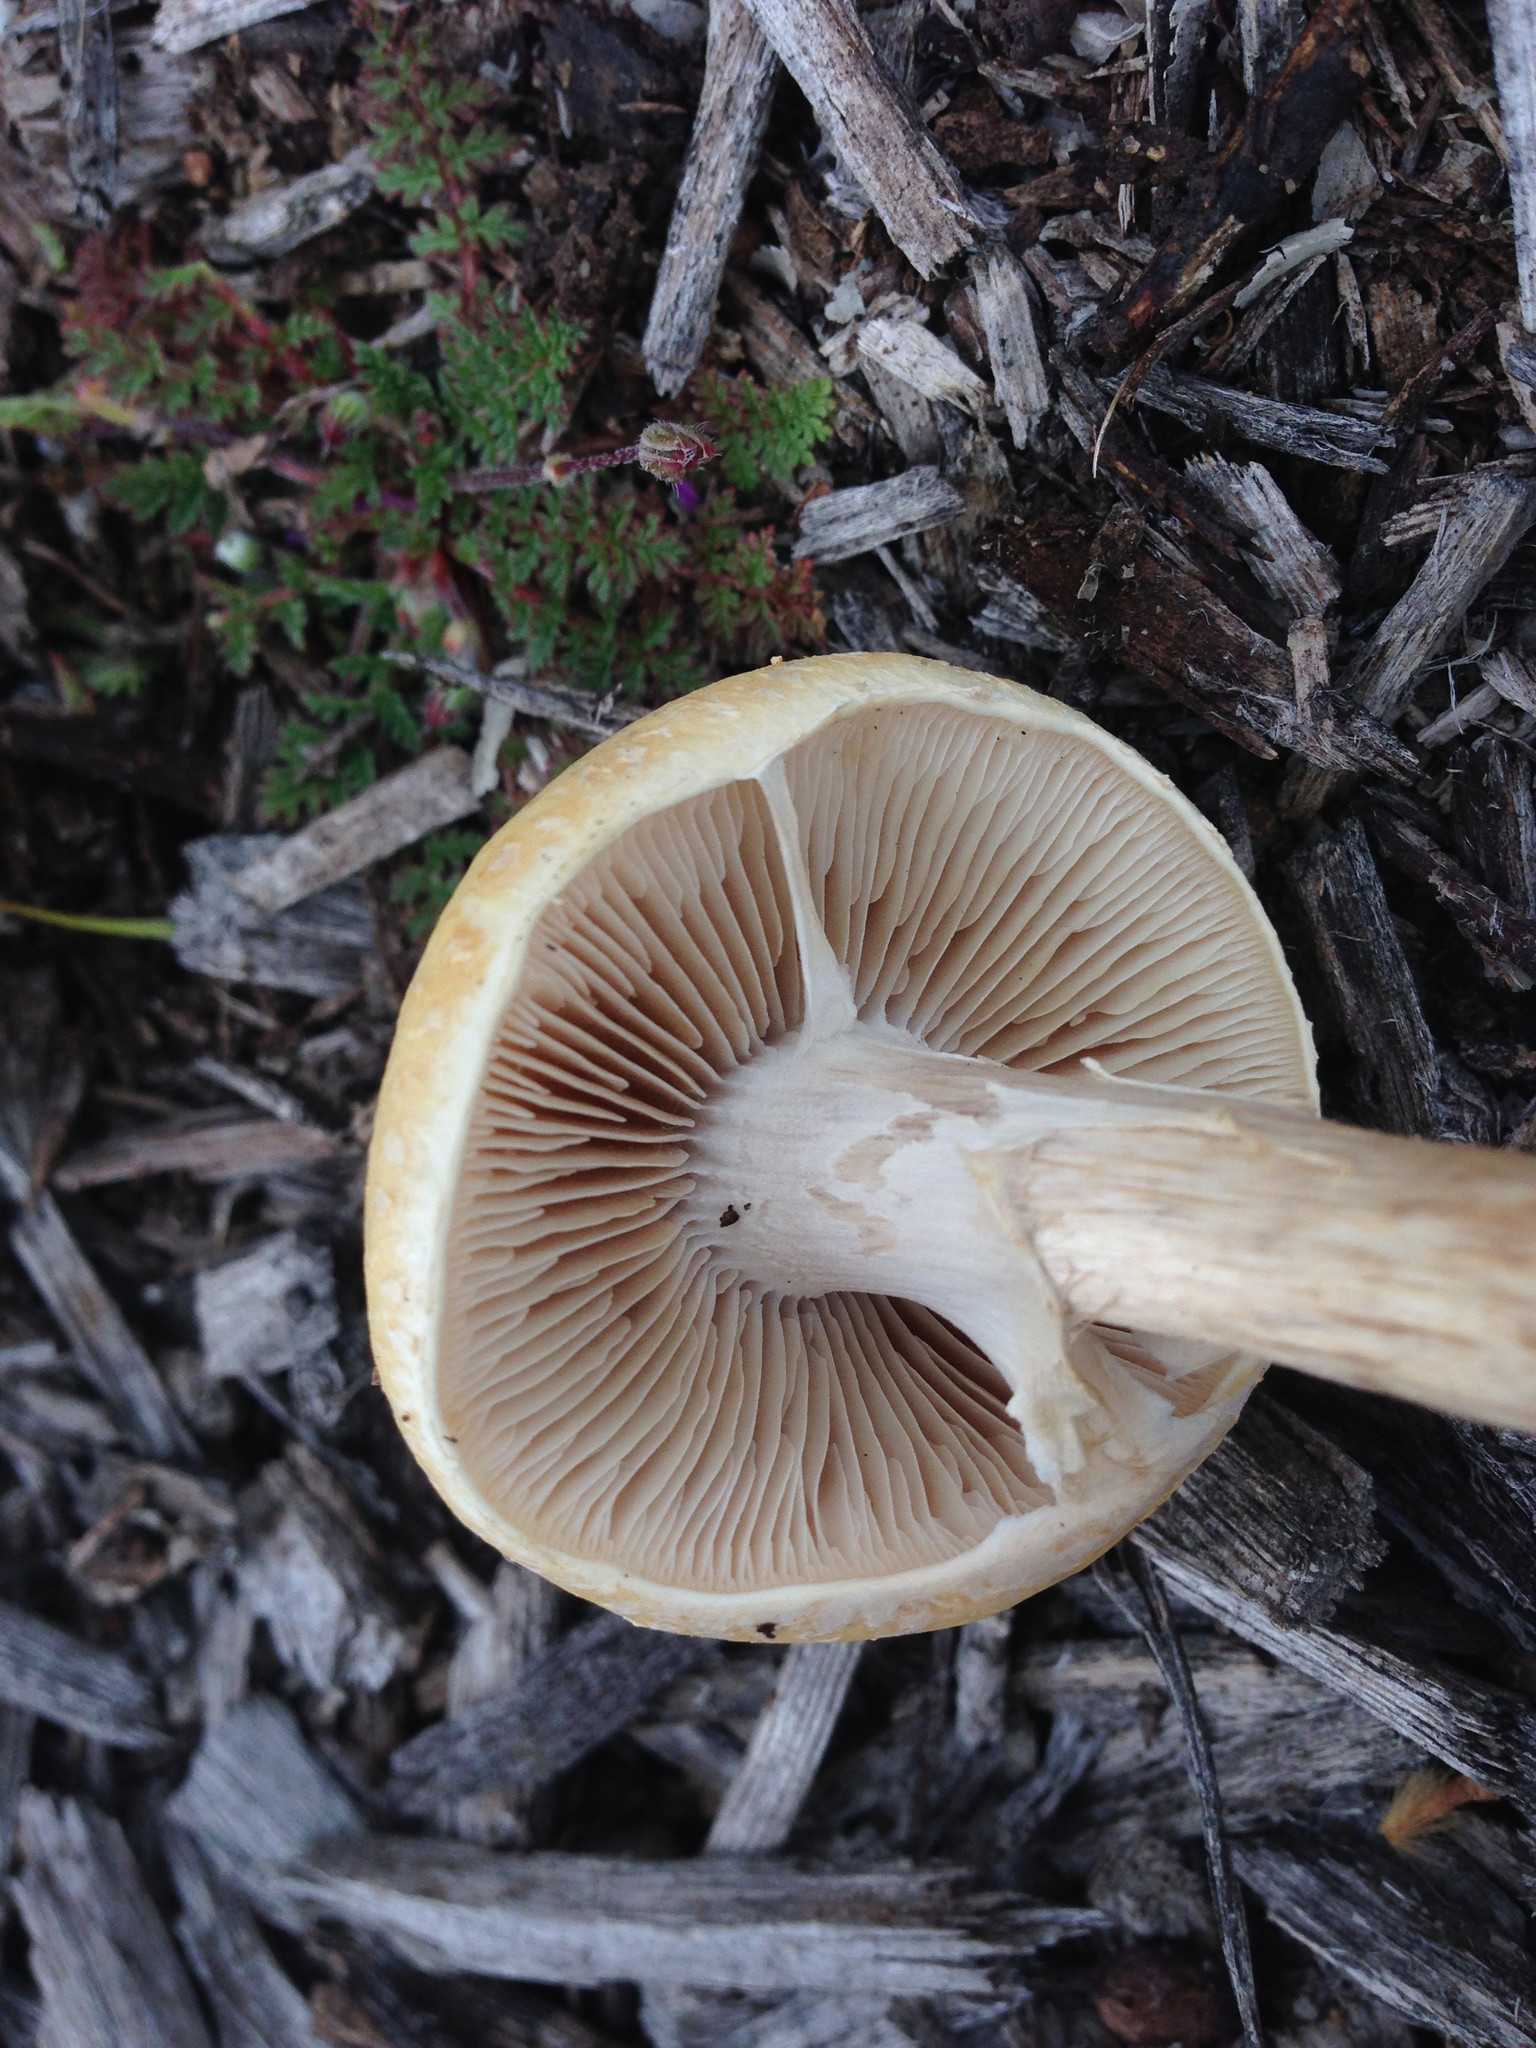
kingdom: Fungi
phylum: Basidiomycota
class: Agaricomycetes
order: Agaricales
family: Strophariaceae
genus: Agrocybe
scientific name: Agrocybe praecox
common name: Spring fieldcap
